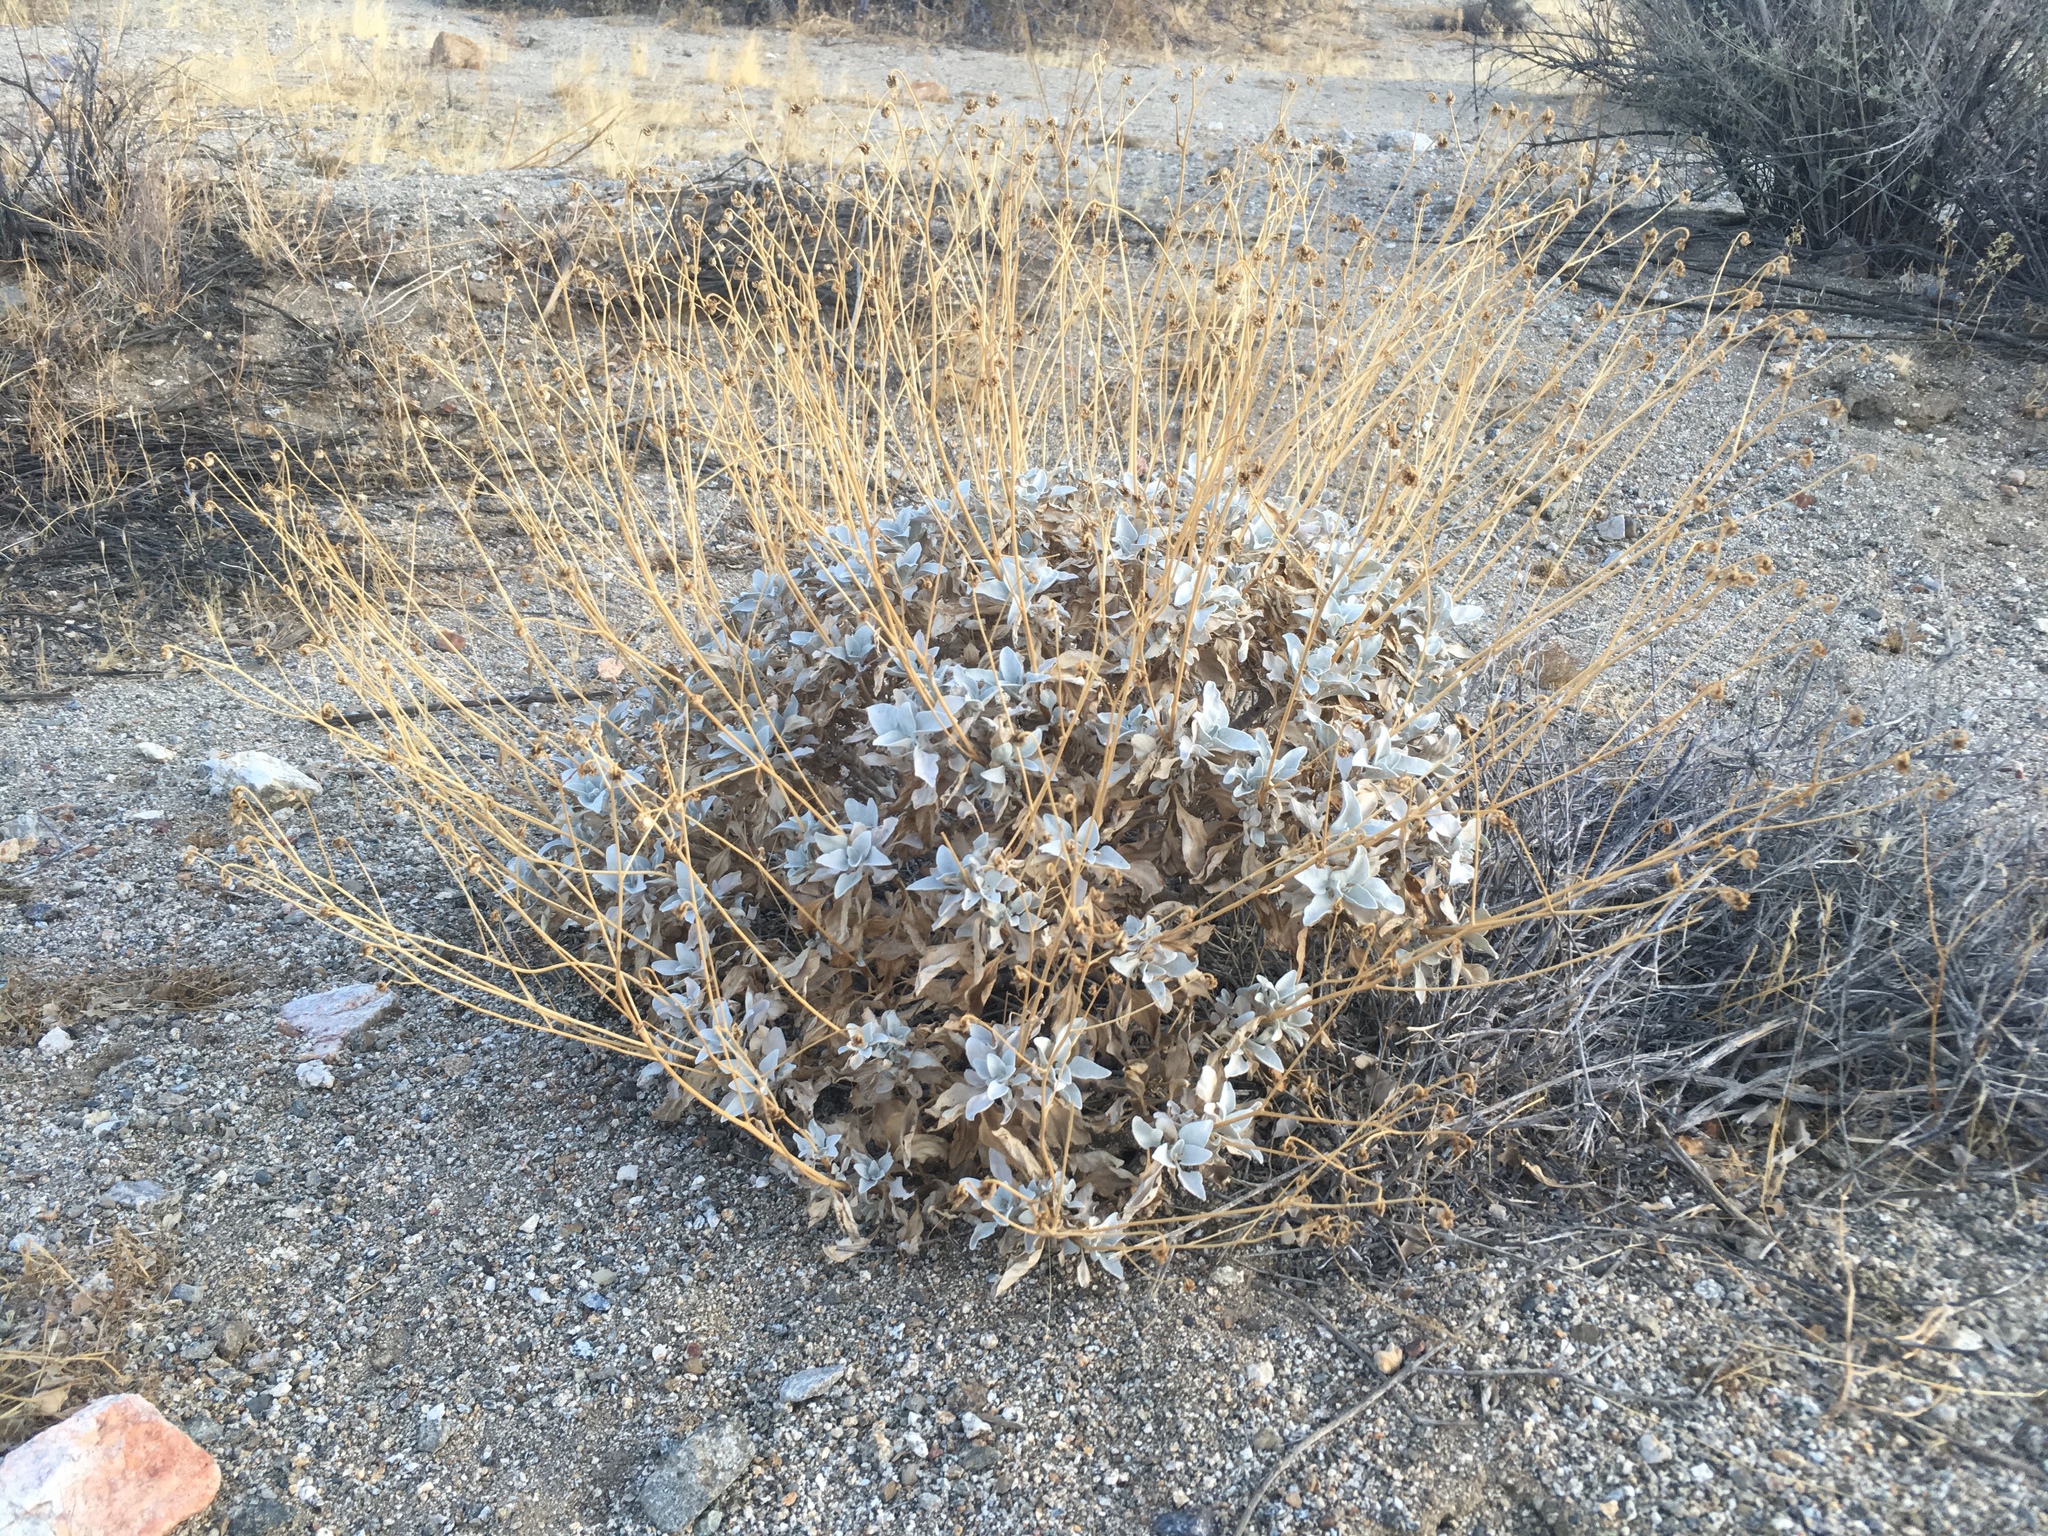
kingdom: Plantae
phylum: Tracheophyta
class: Magnoliopsida
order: Asterales
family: Asteraceae
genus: Encelia
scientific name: Encelia farinosa
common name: Brittlebush
